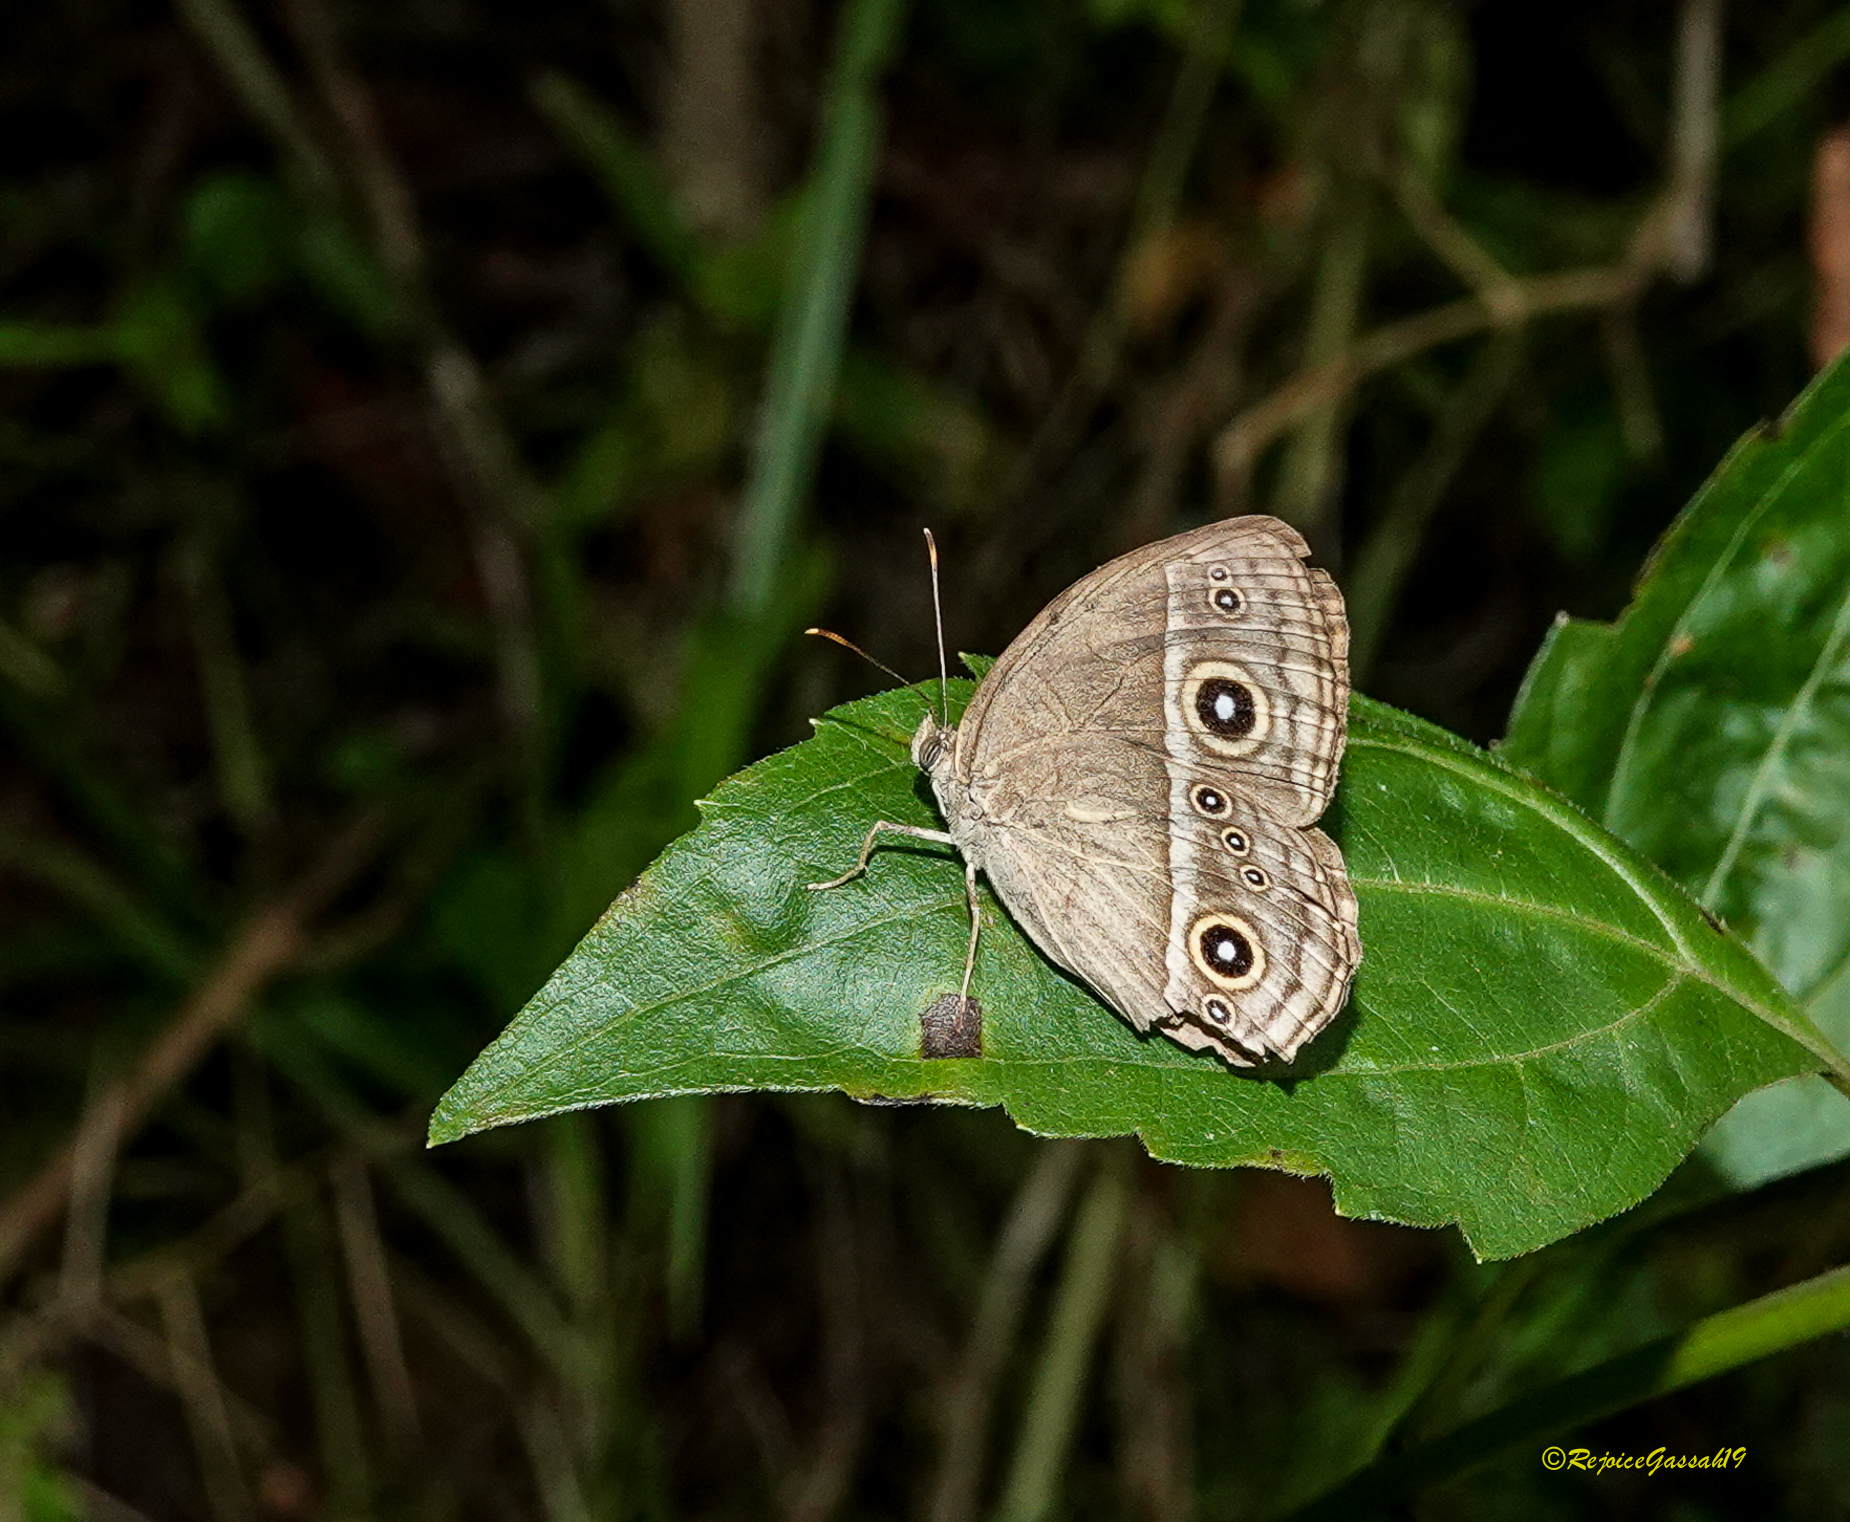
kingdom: Animalia
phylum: Arthropoda
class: Insecta
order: Lepidoptera
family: Nymphalidae
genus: Mycalesis
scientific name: Mycalesis gotama
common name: Chinese bushbrown
